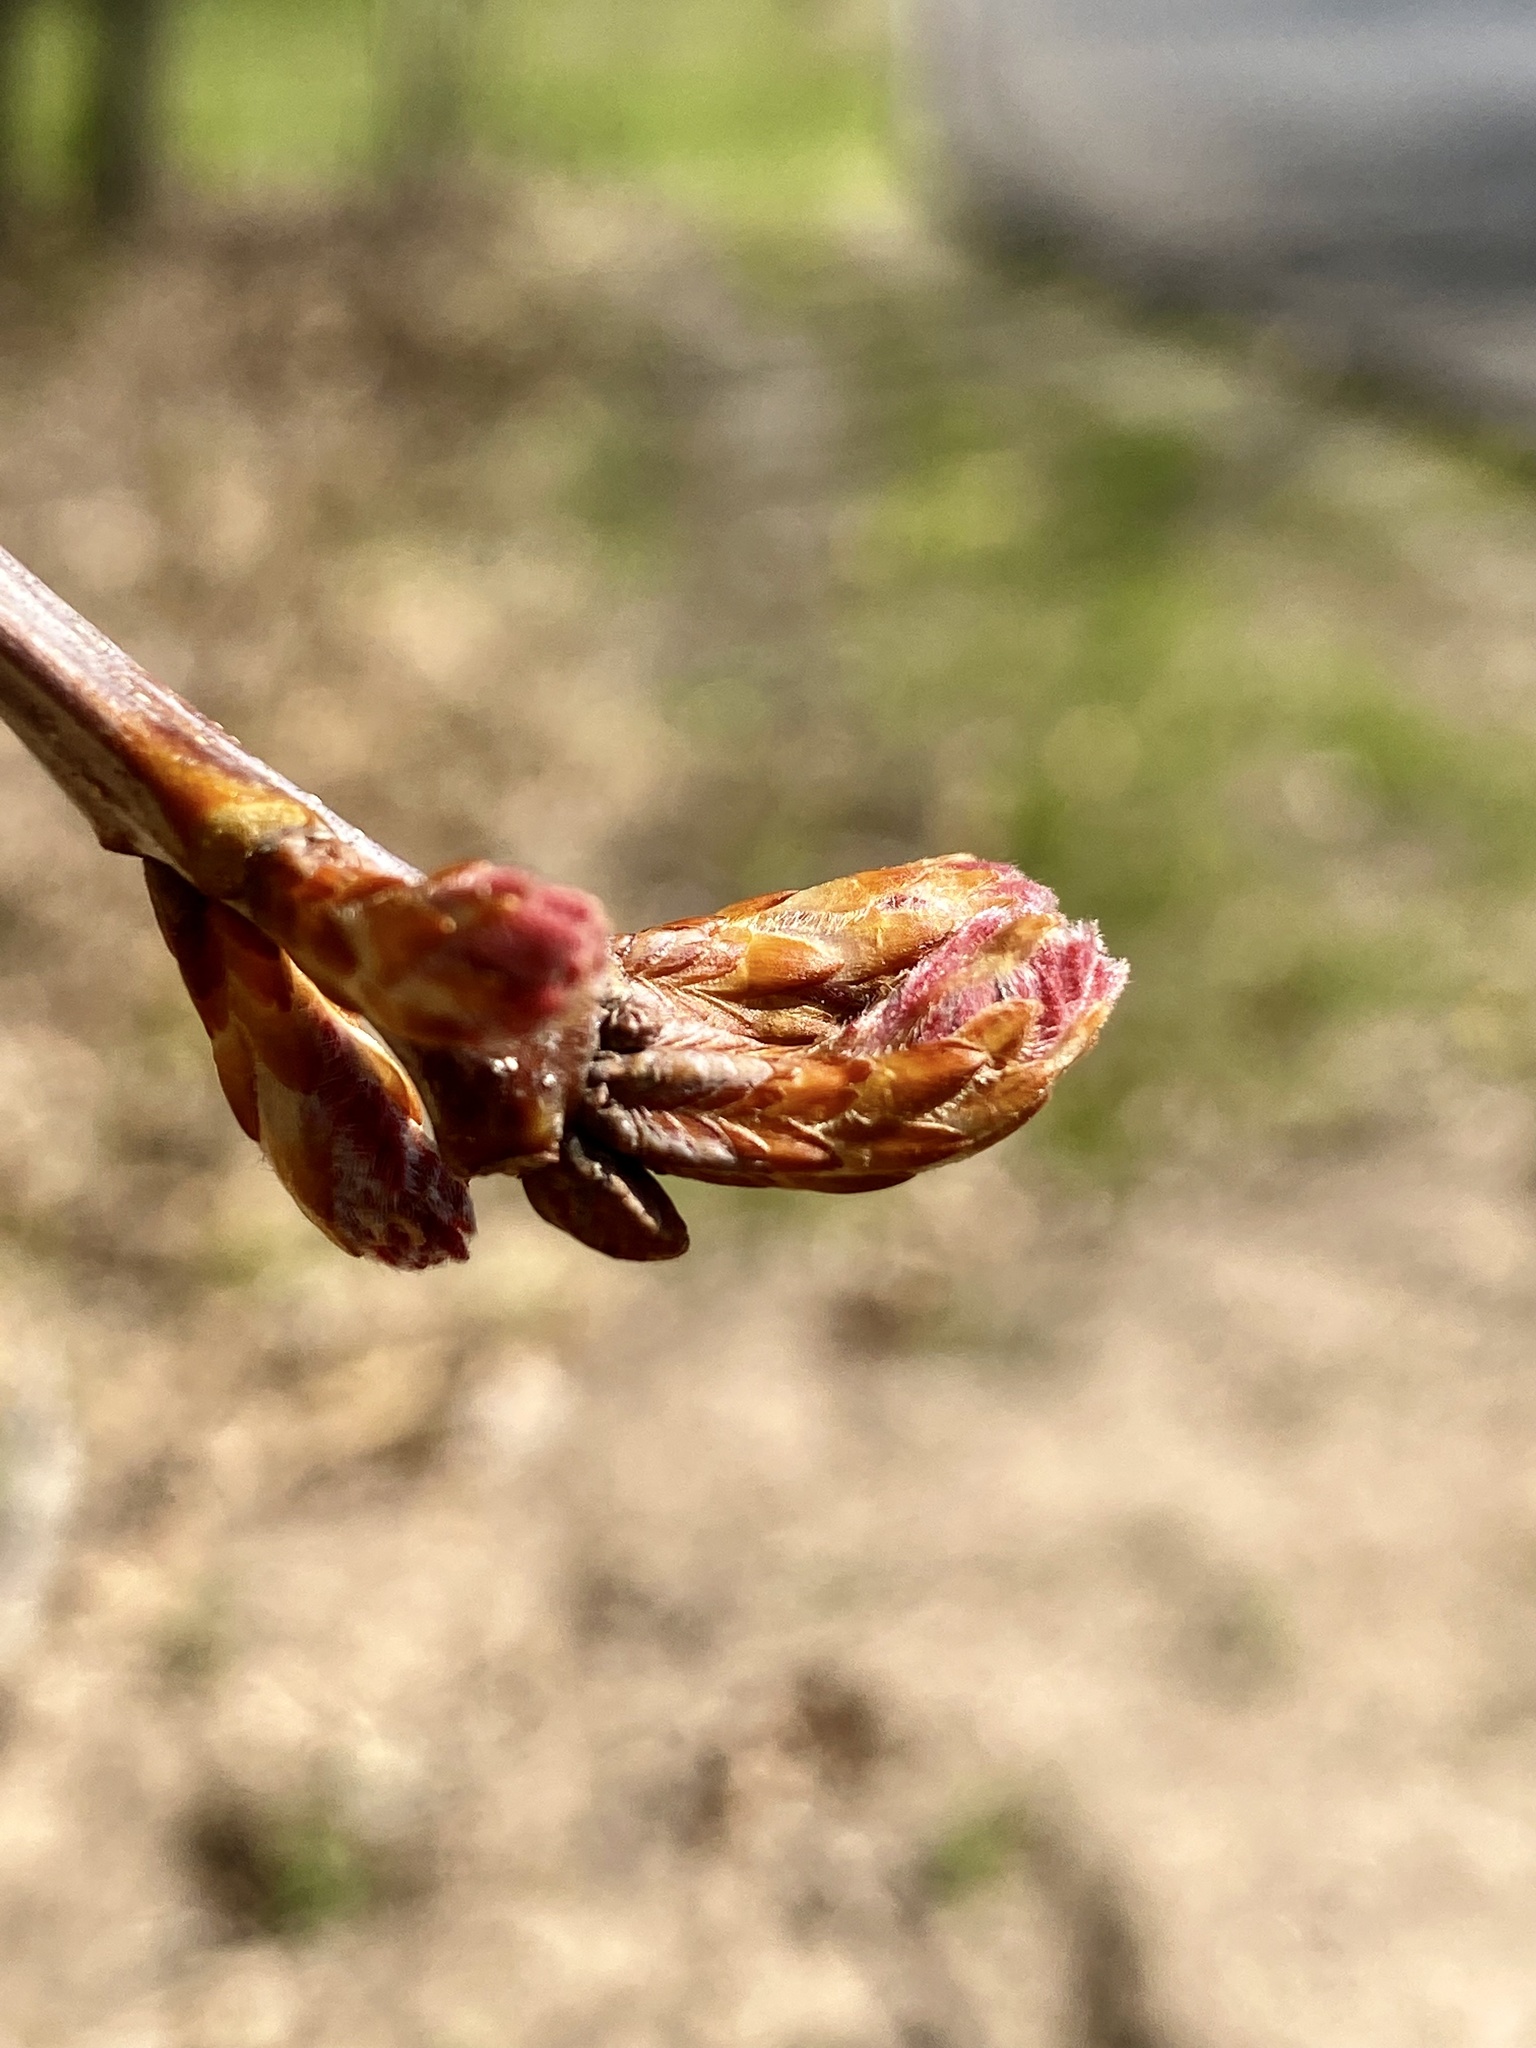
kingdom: Plantae
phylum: Tracheophyta
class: Magnoliopsida
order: Fagales
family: Fagaceae
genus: Quercus
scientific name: Quercus alba
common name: White oak
